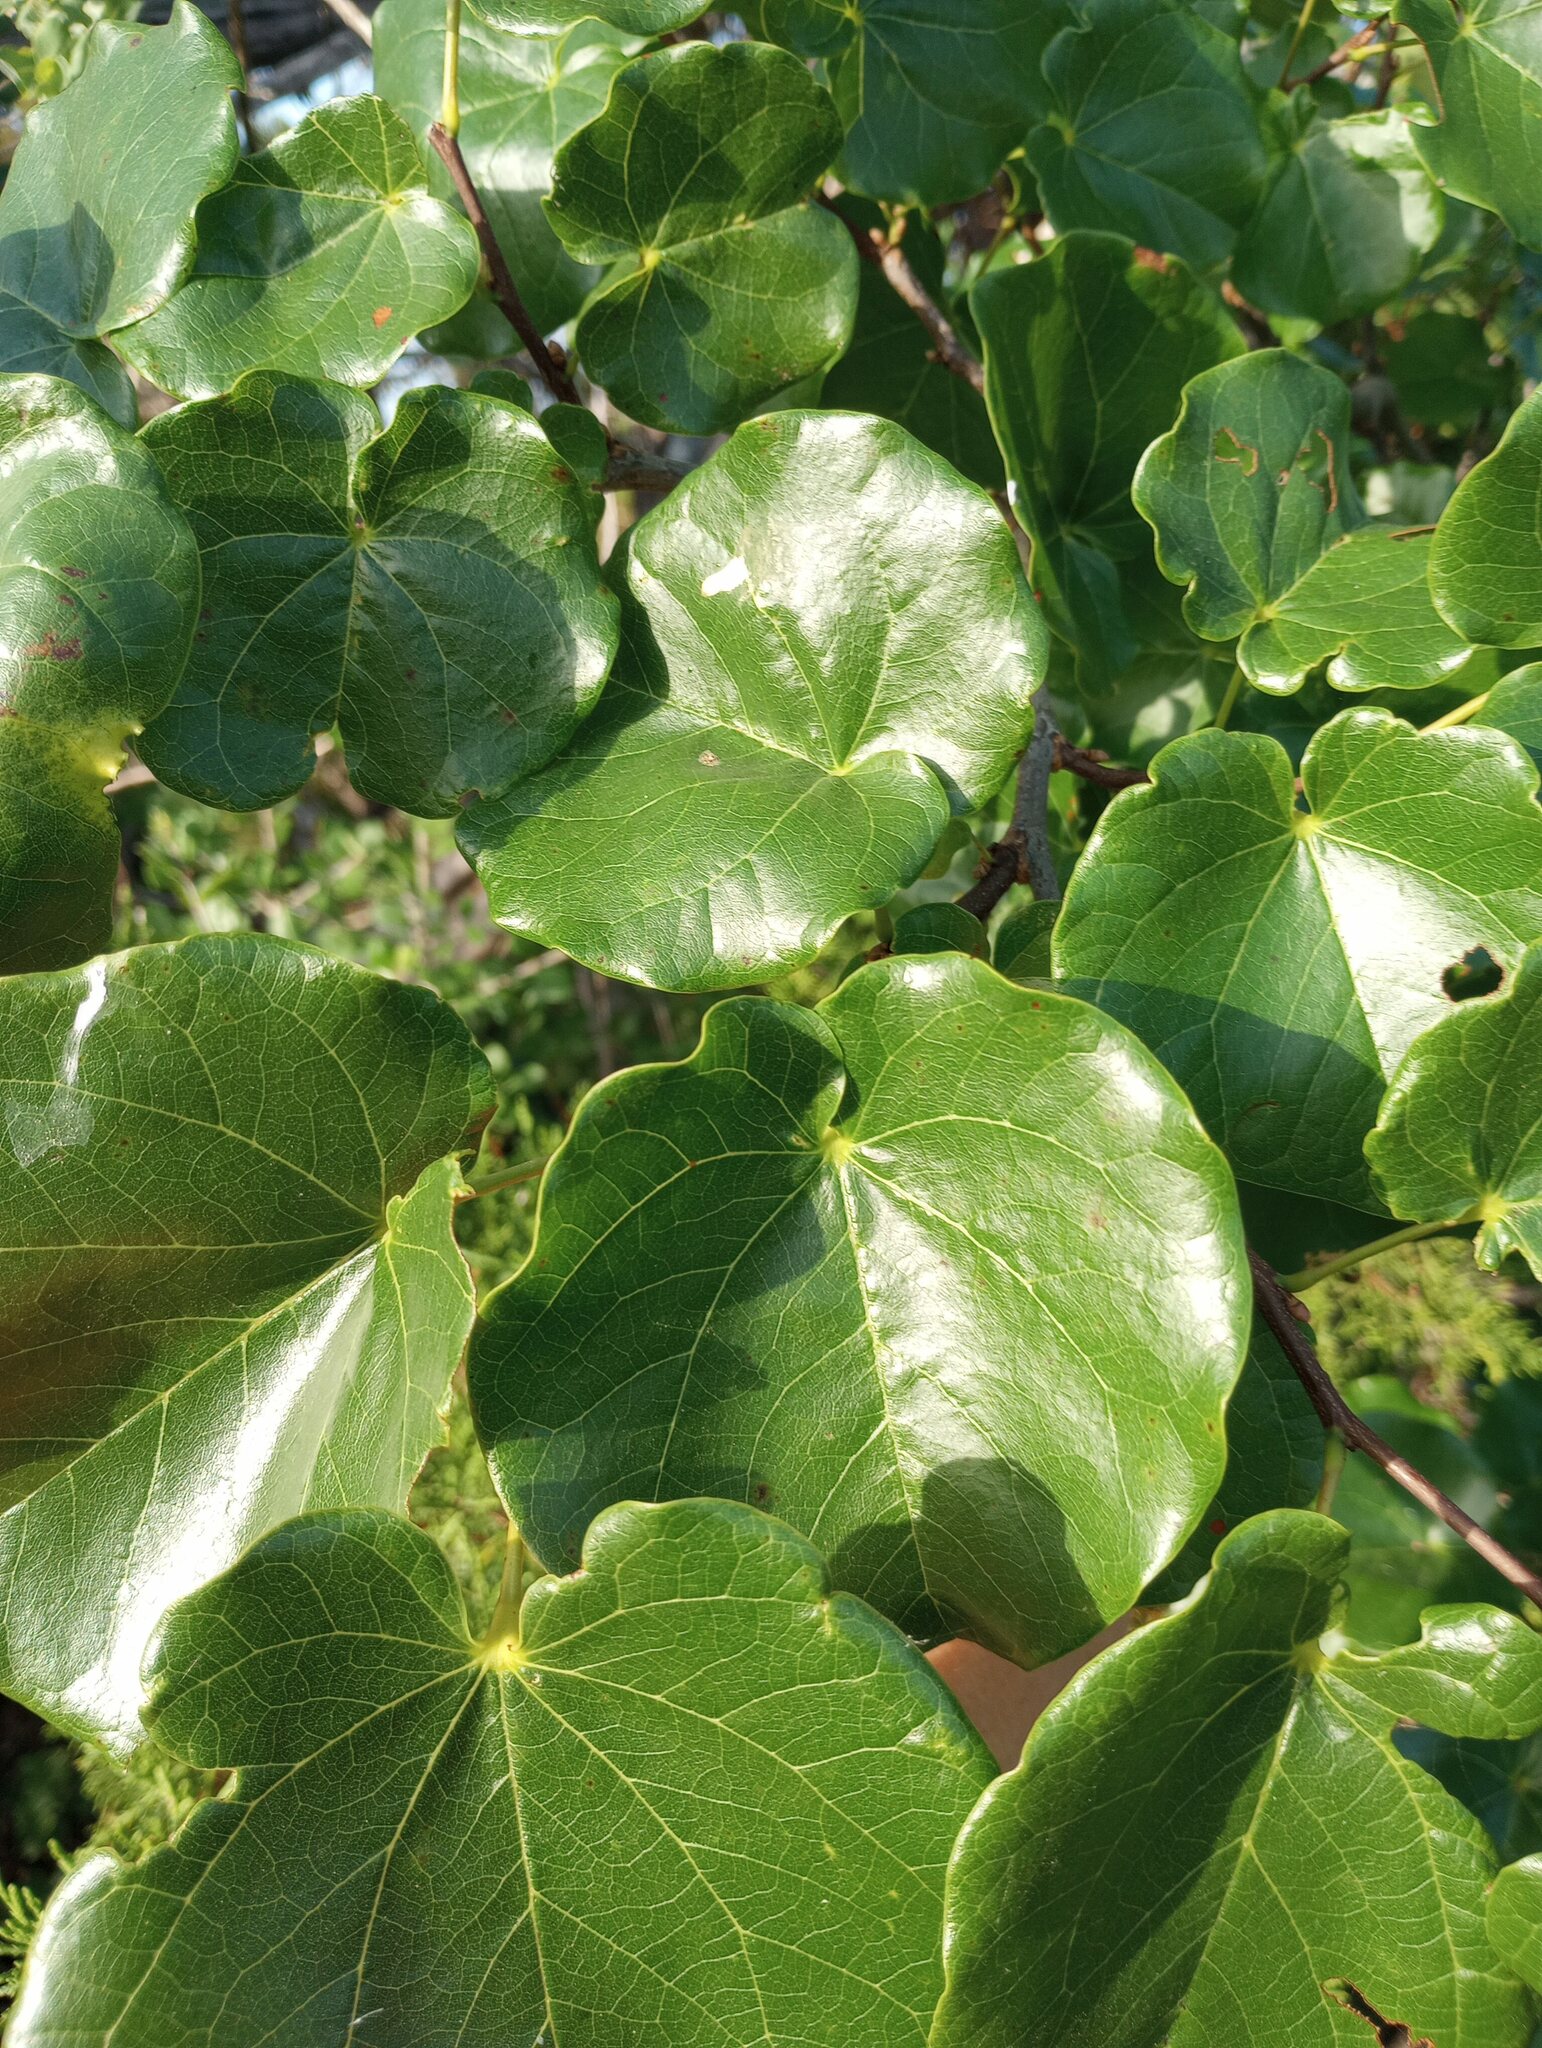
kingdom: Plantae
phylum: Tracheophyta
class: Magnoliopsida
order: Fabales
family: Fabaceae
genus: Cercis
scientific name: Cercis canadensis
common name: Eastern redbud
